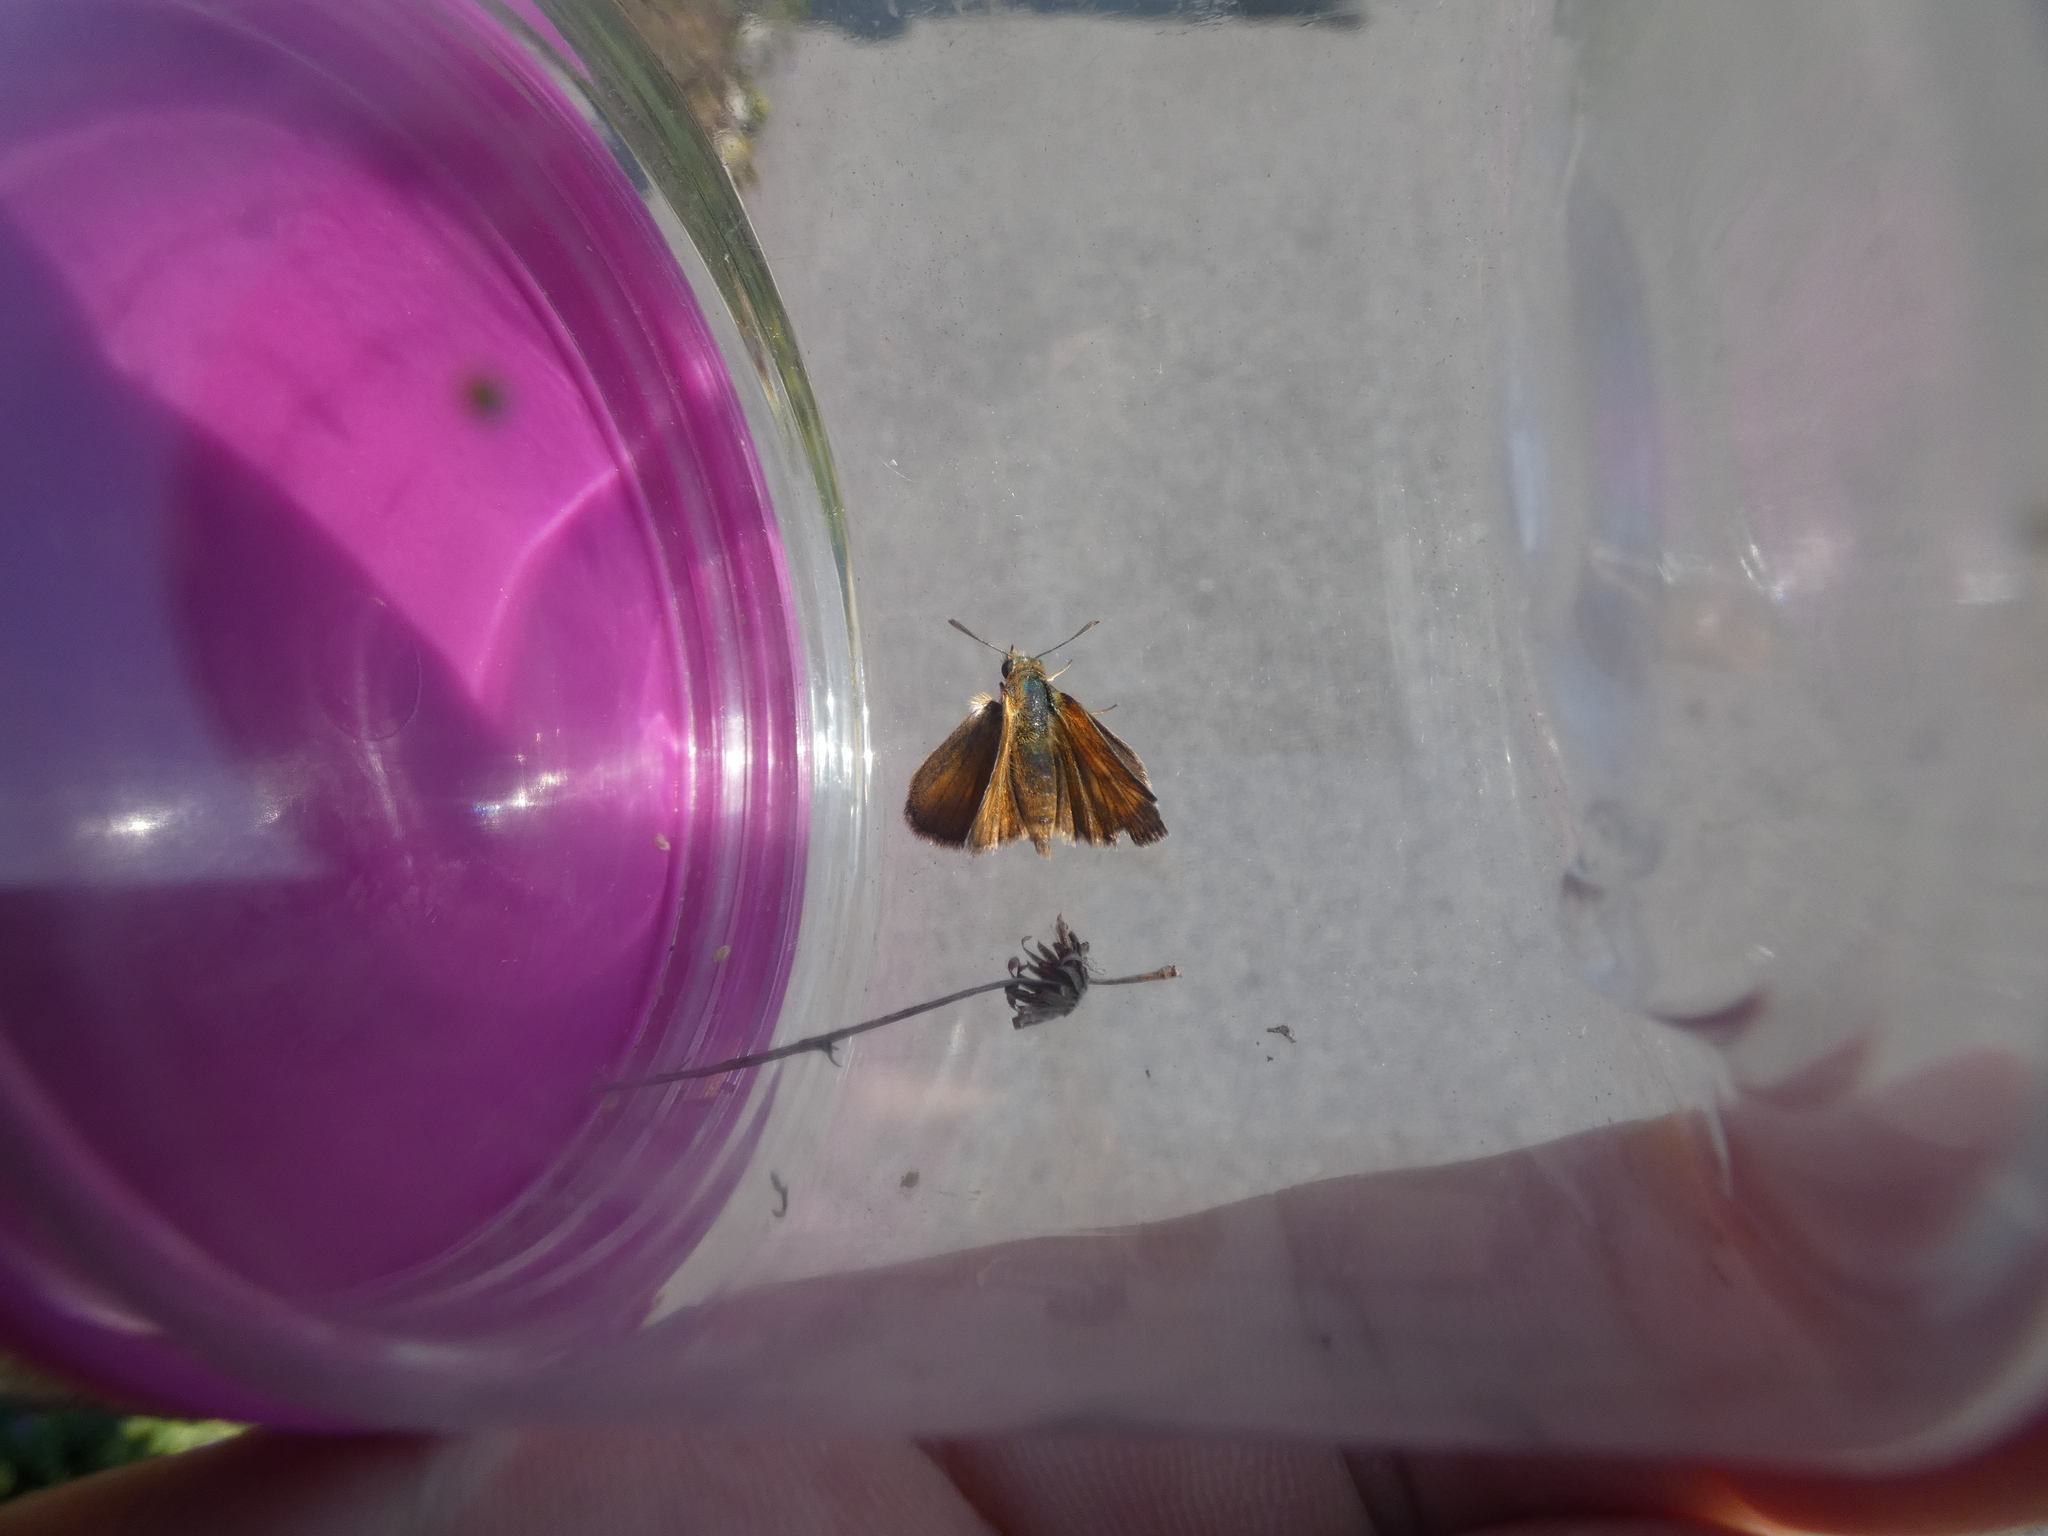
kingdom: Animalia
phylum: Arthropoda
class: Insecta
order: Lepidoptera
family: Hesperiidae
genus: Thymelicus
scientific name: Thymelicus acteon
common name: Lulworth skipper
